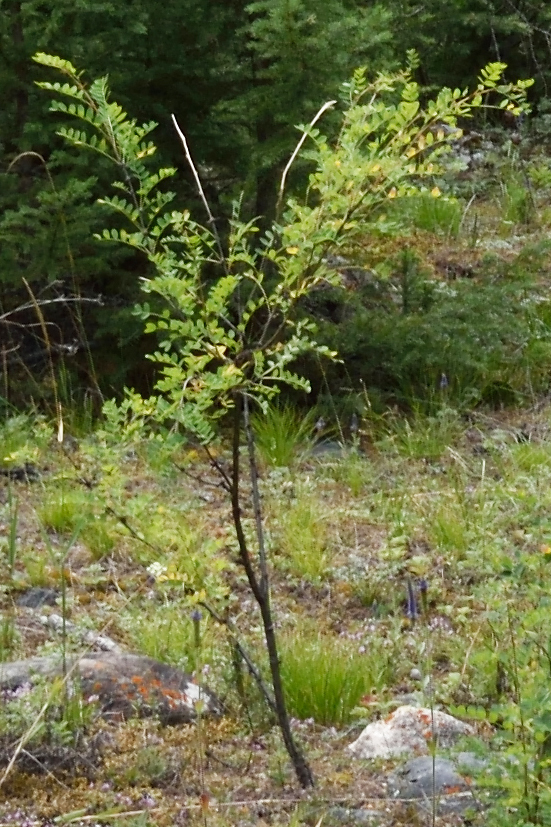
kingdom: Plantae
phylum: Tracheophyta
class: Magnoliopsida
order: Fabales
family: Fabaceae
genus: Caragana
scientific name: Caragana arborescens
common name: Siberian peashrub
